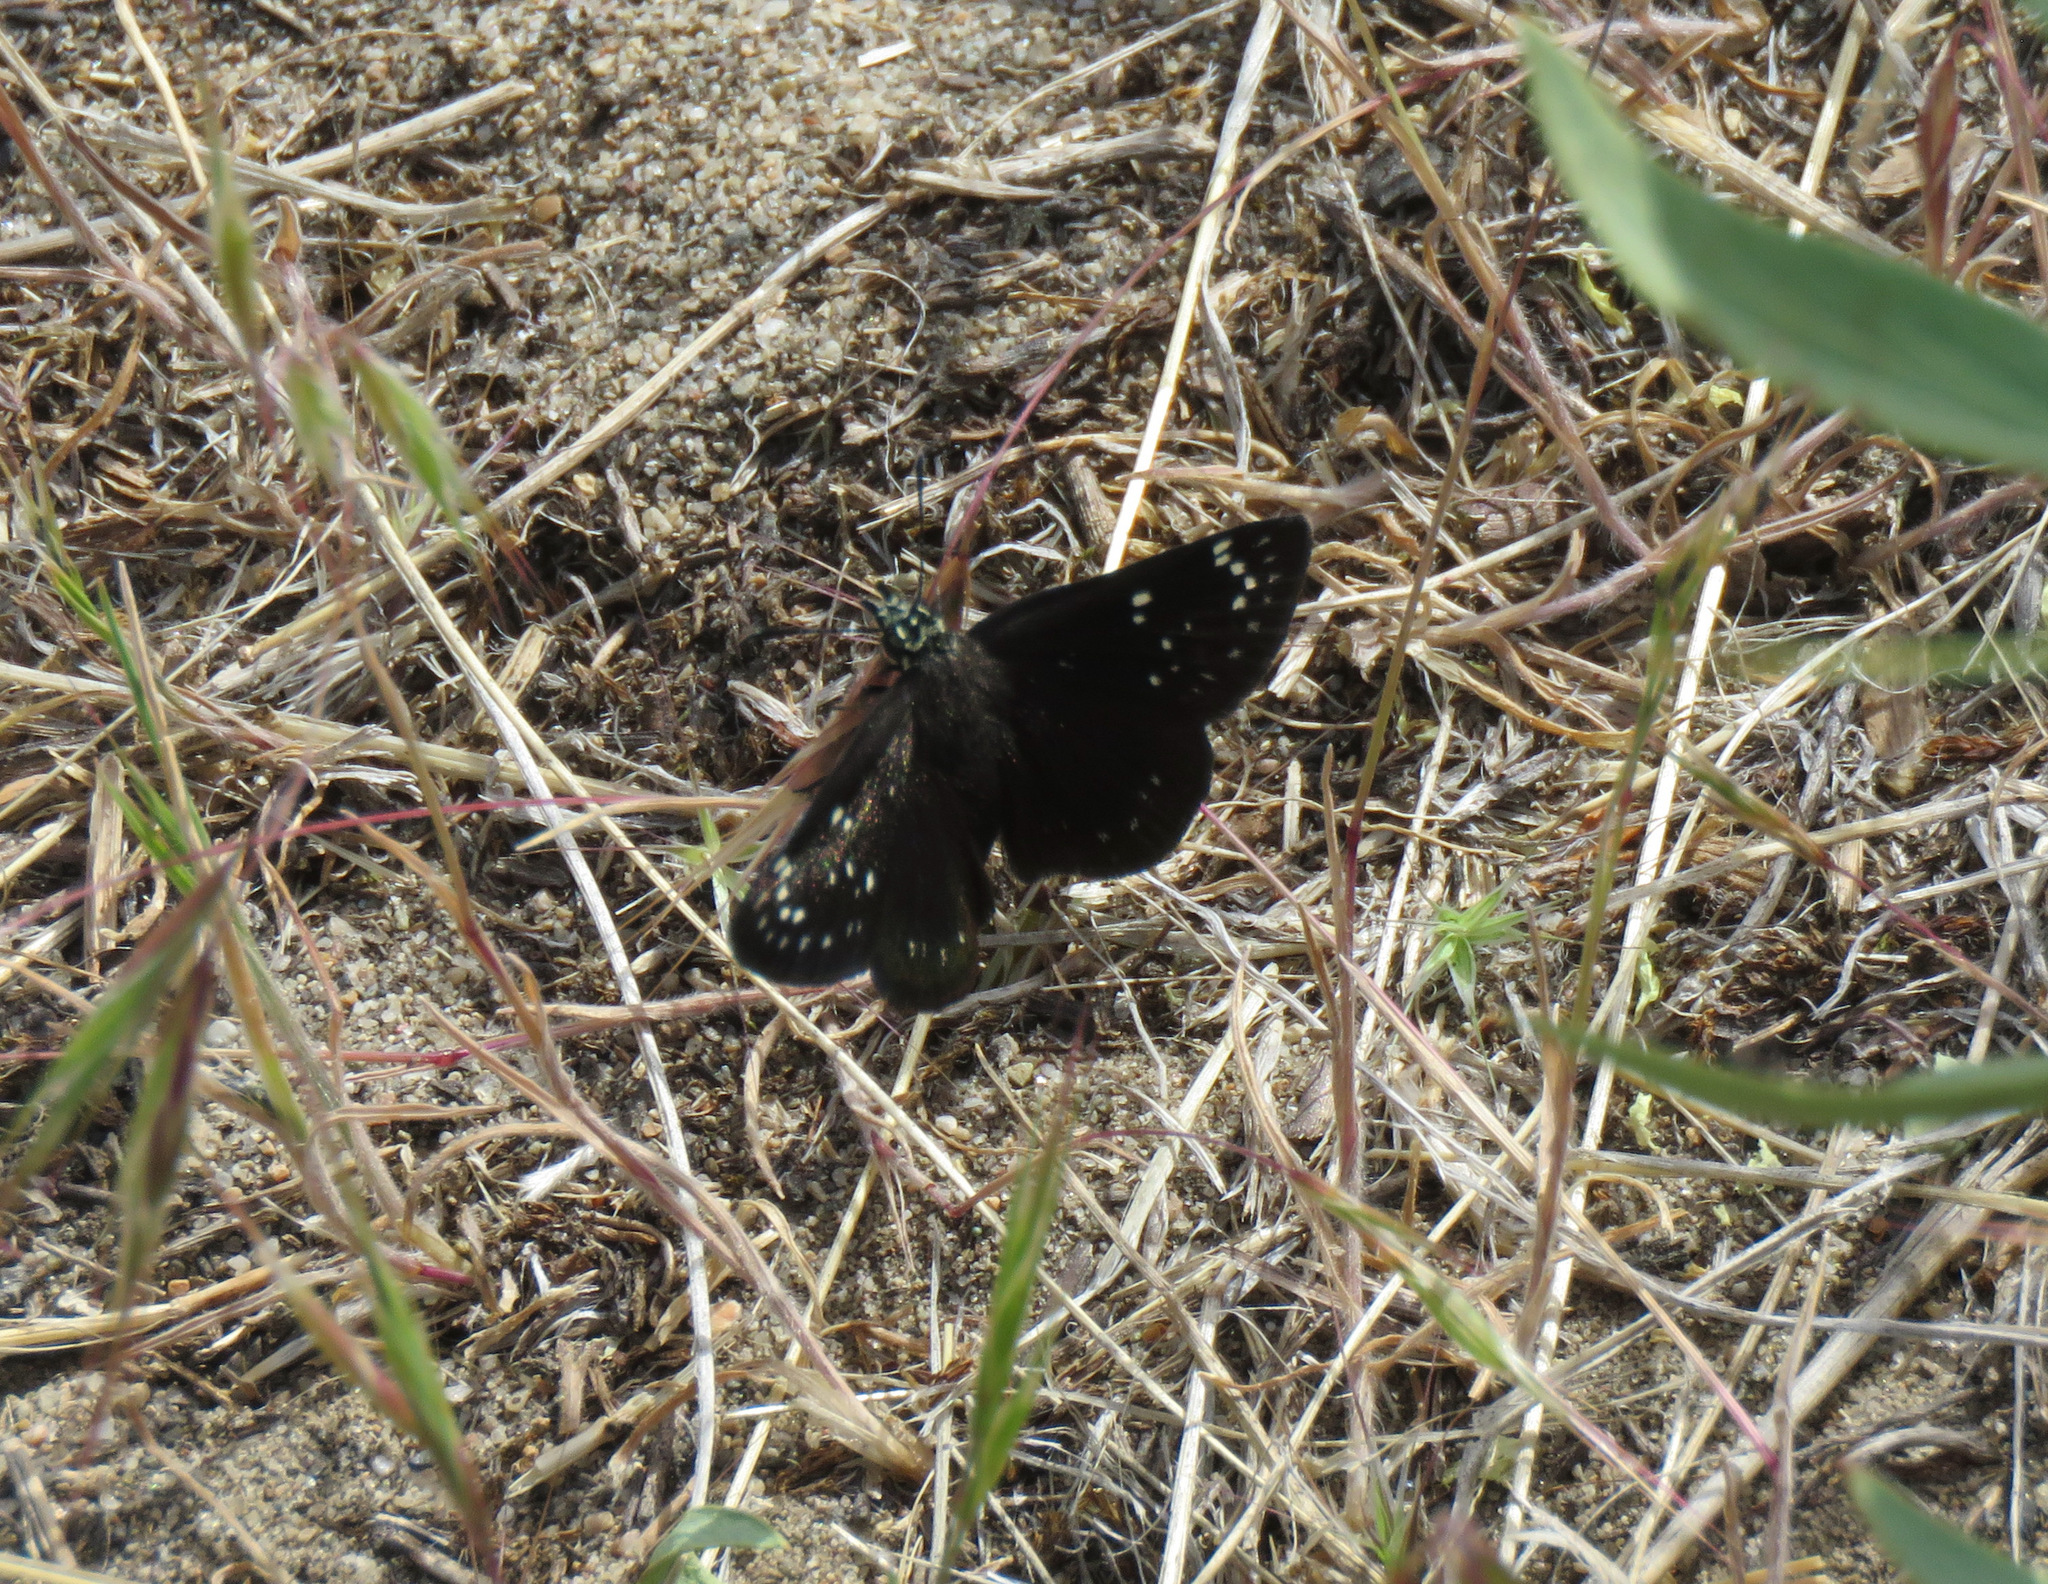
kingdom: Animalia
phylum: Arthropoda
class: Insecta
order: Lepidoptera
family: Hesperiidae
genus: Pholisora
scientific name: Pholisora catullus
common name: Common sootywing
